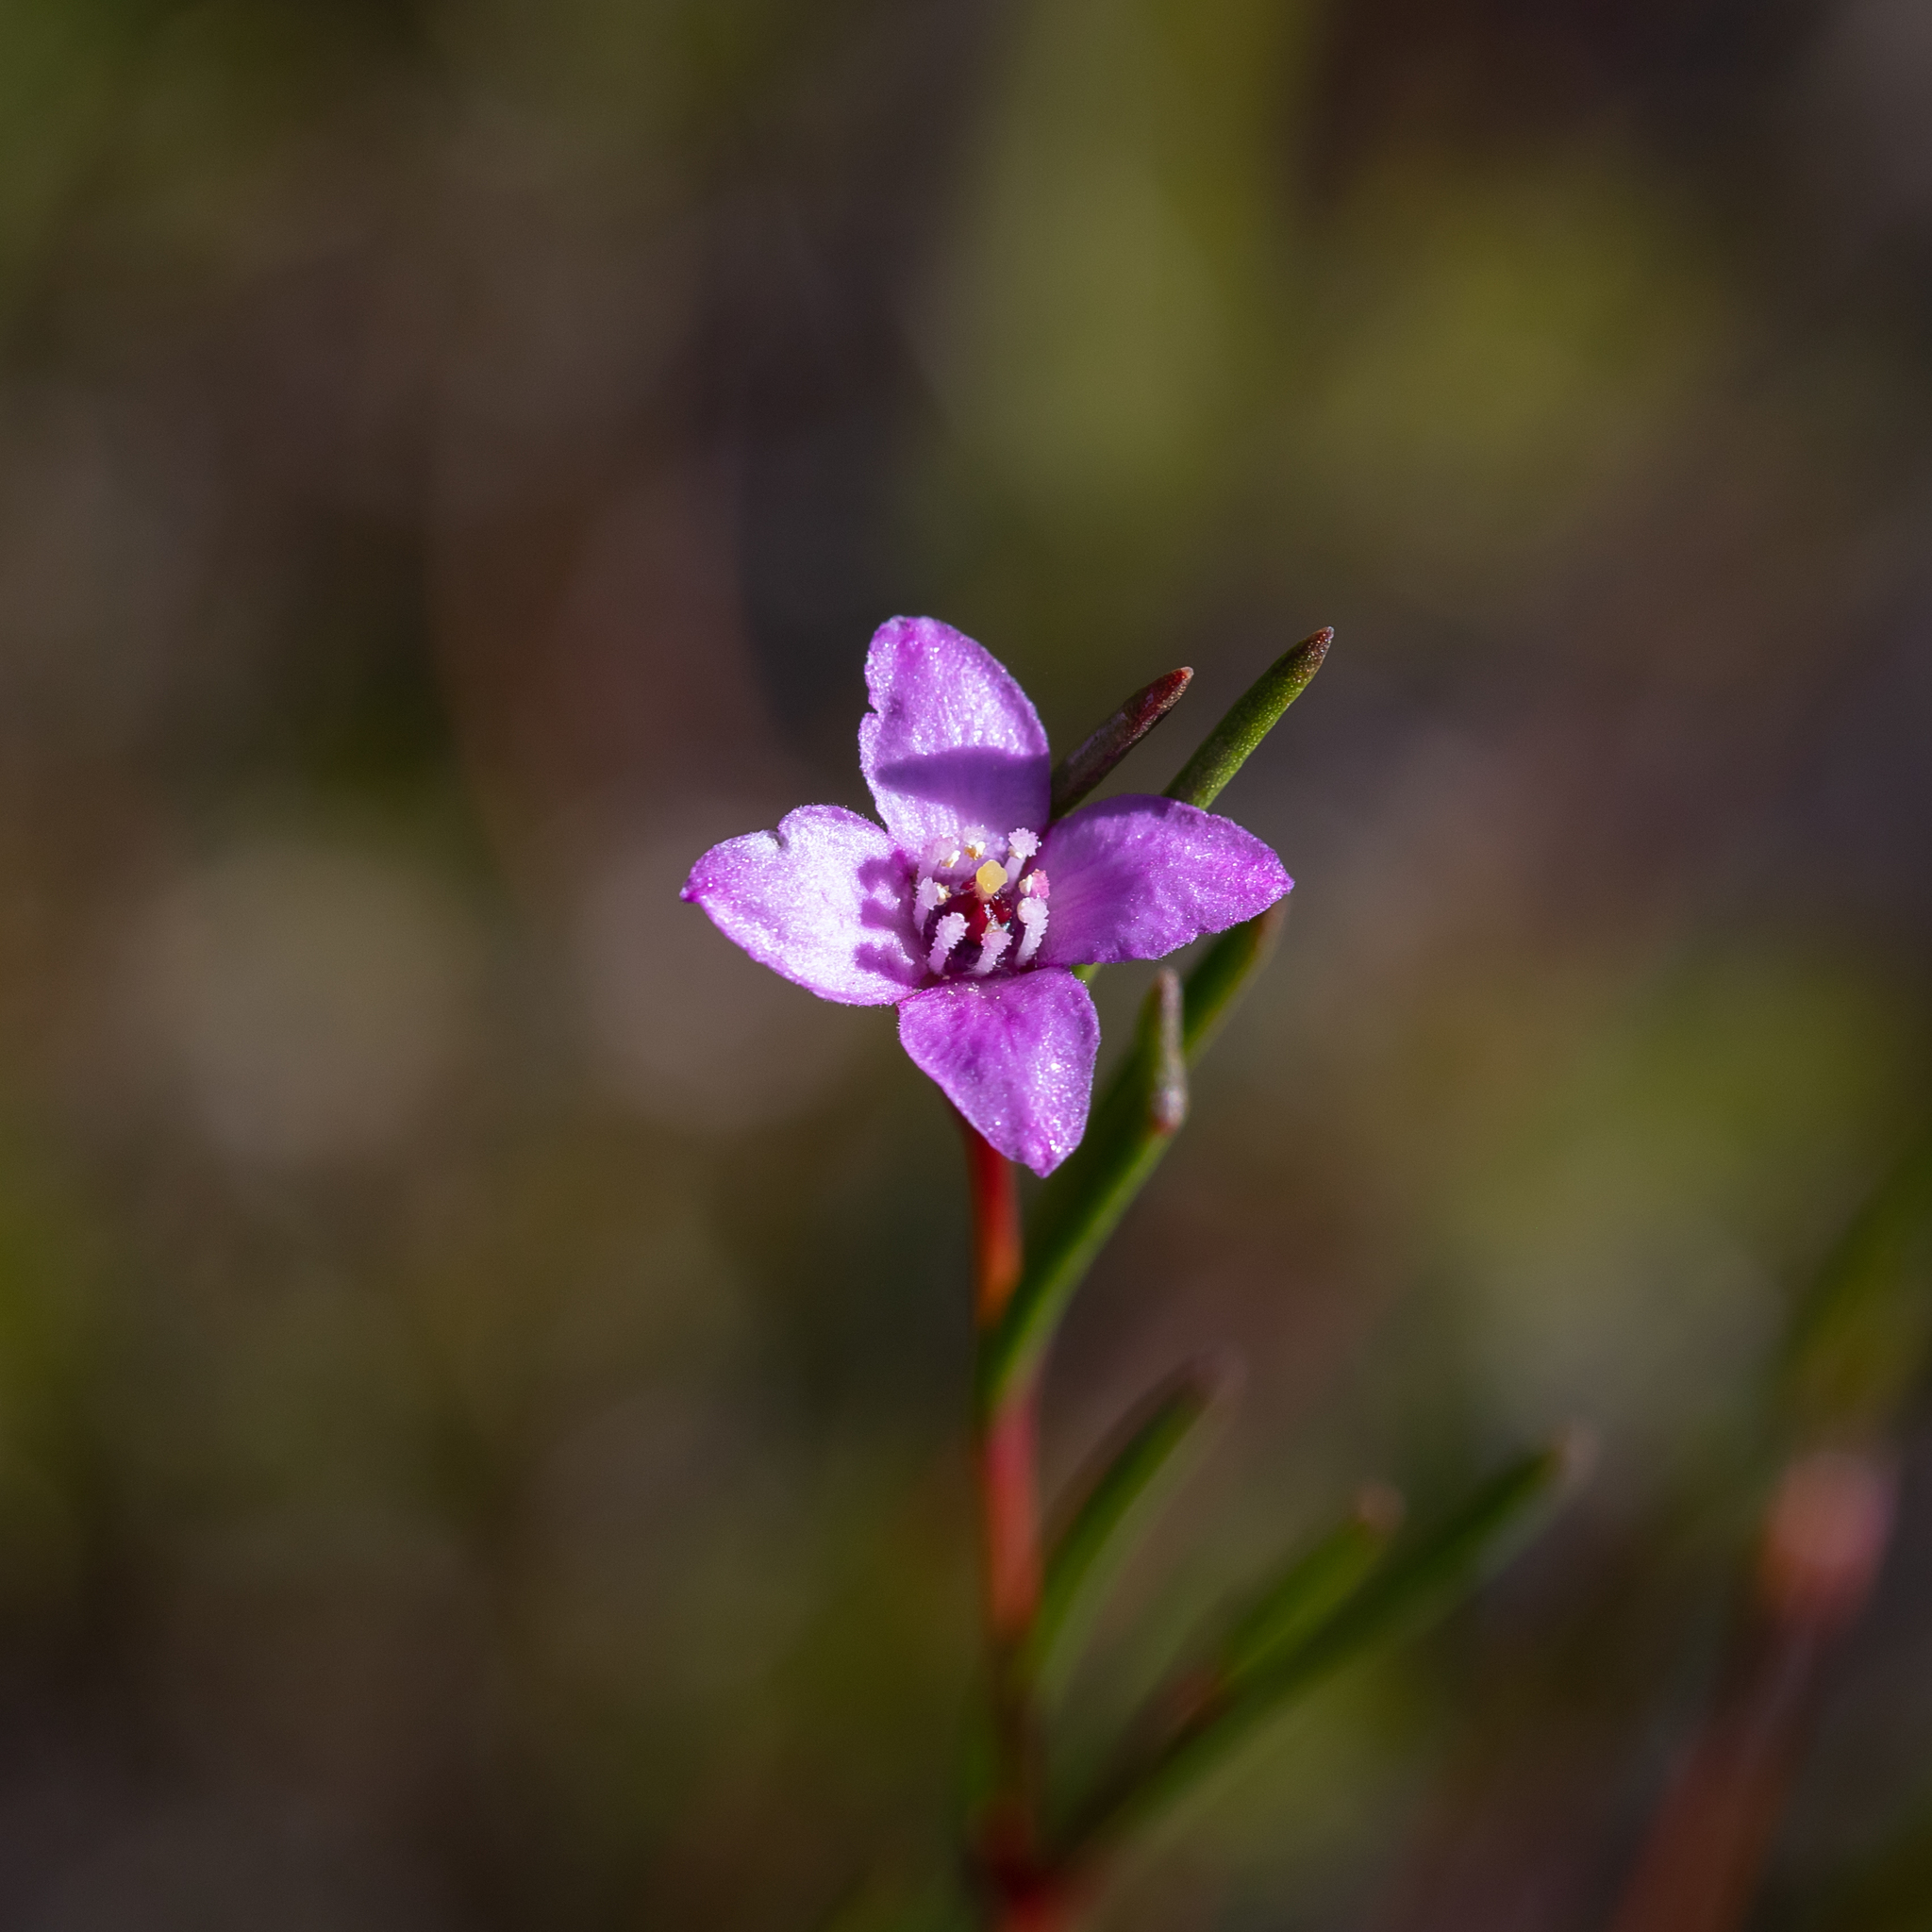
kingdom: Plantae
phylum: Tracheophyta
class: Magnoliopsida
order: Sapindales
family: Rutaceae
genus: Boronia
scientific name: Boronia filifolia
